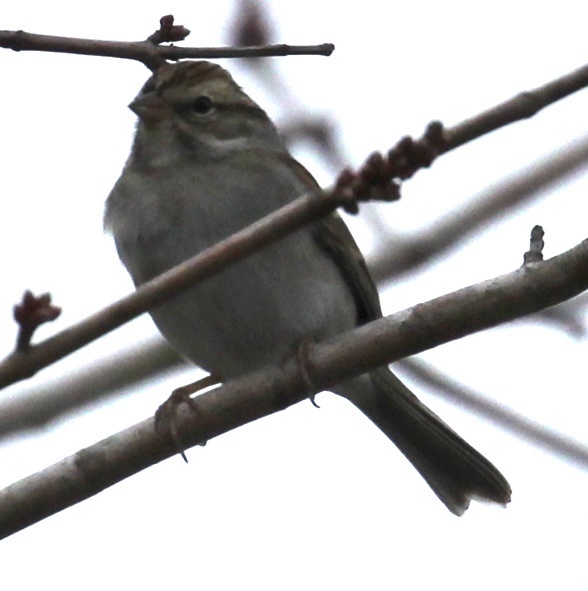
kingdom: Animalia
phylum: Chordata
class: Aves
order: Passeriformes
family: Passerellidae
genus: Spizella
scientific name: Spizella passerina
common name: Chipping sparrow
